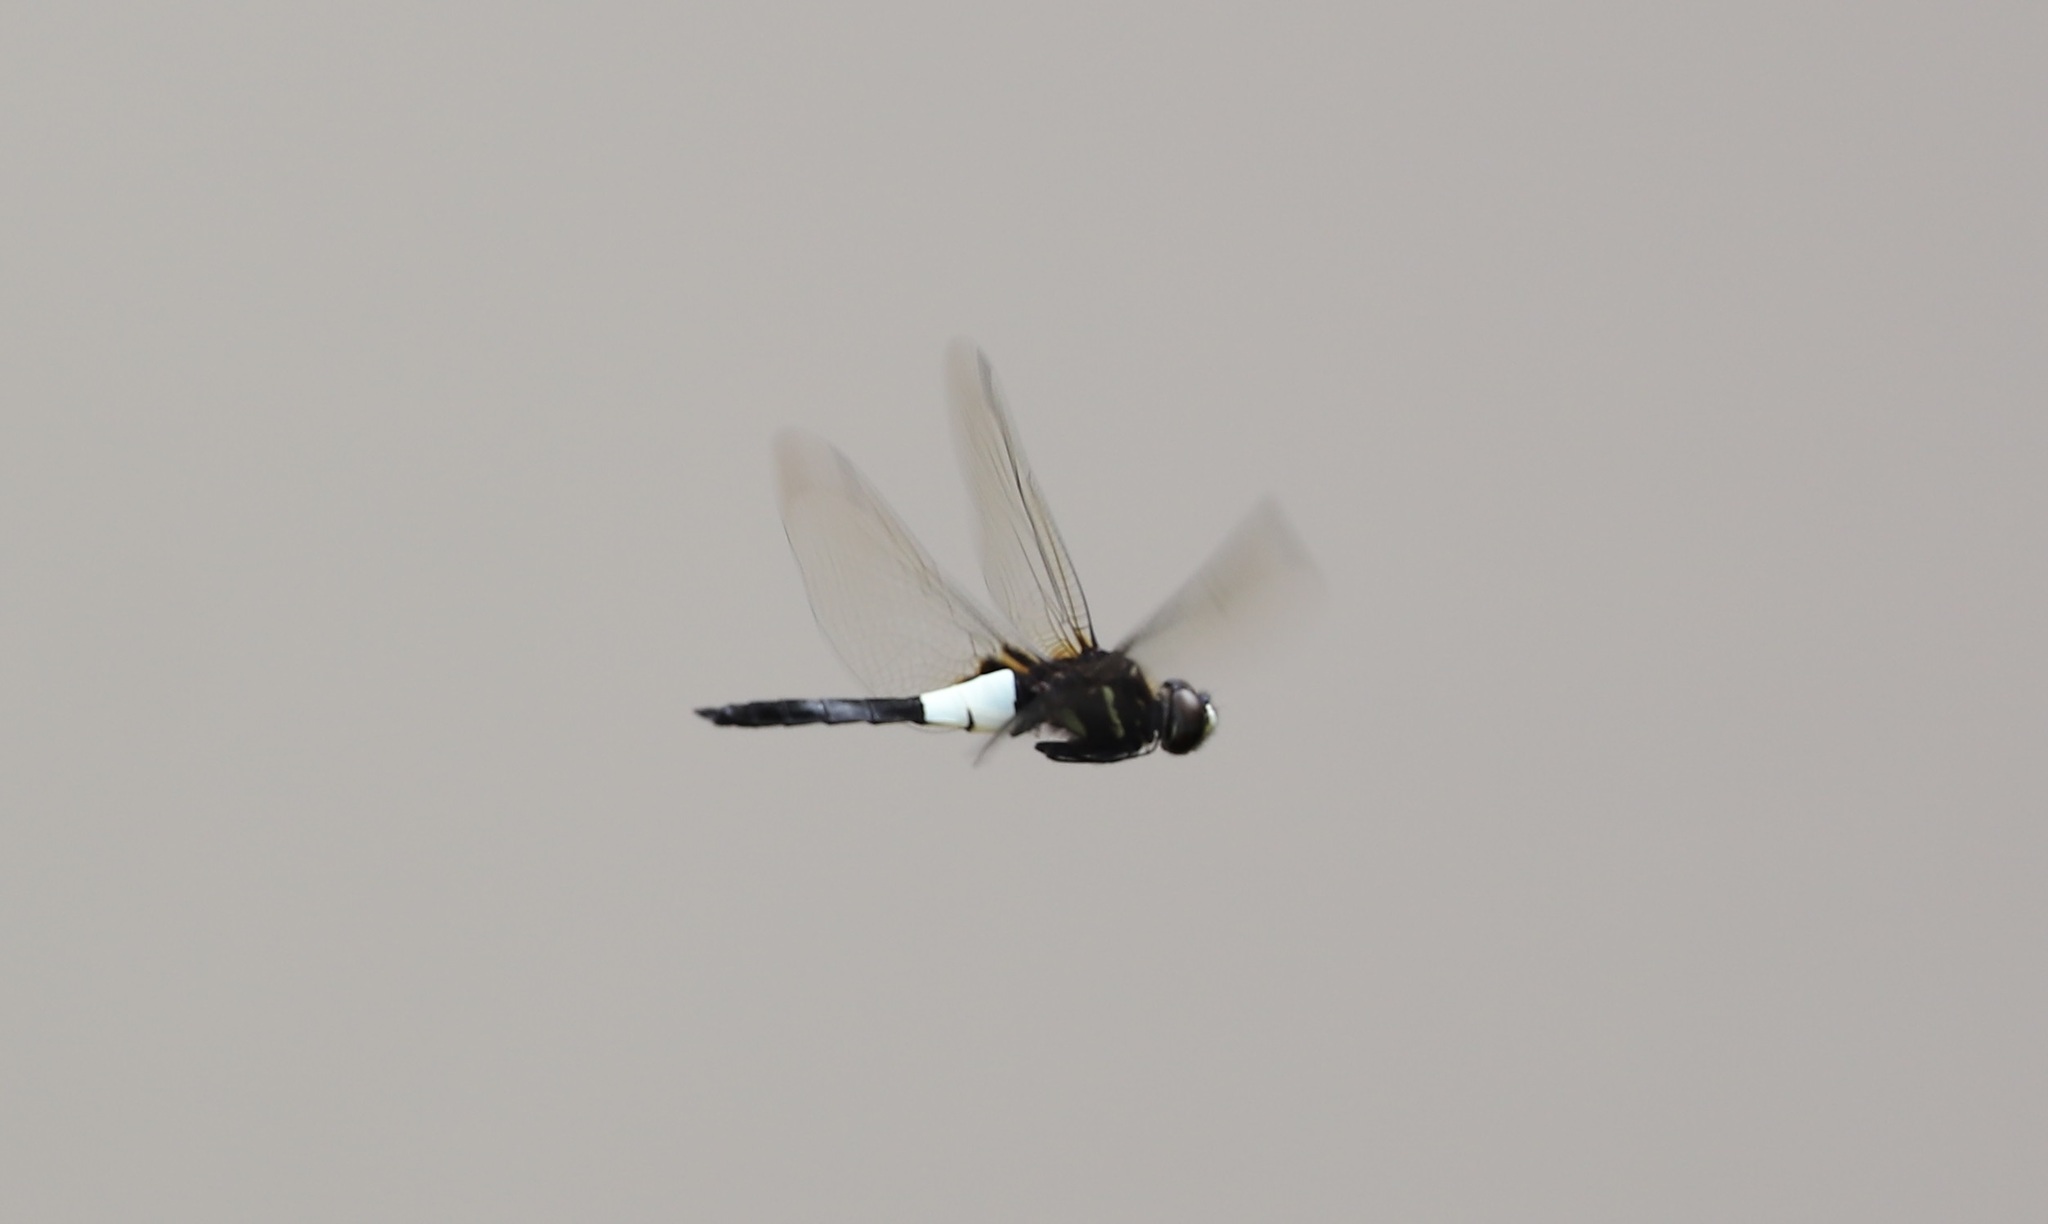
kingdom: Animalia
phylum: Arthropoda
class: Insecta
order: Odonata
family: Libellulidae
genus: Pseudothemis
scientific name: Pseudothemis zonata
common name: Pied skimmer
